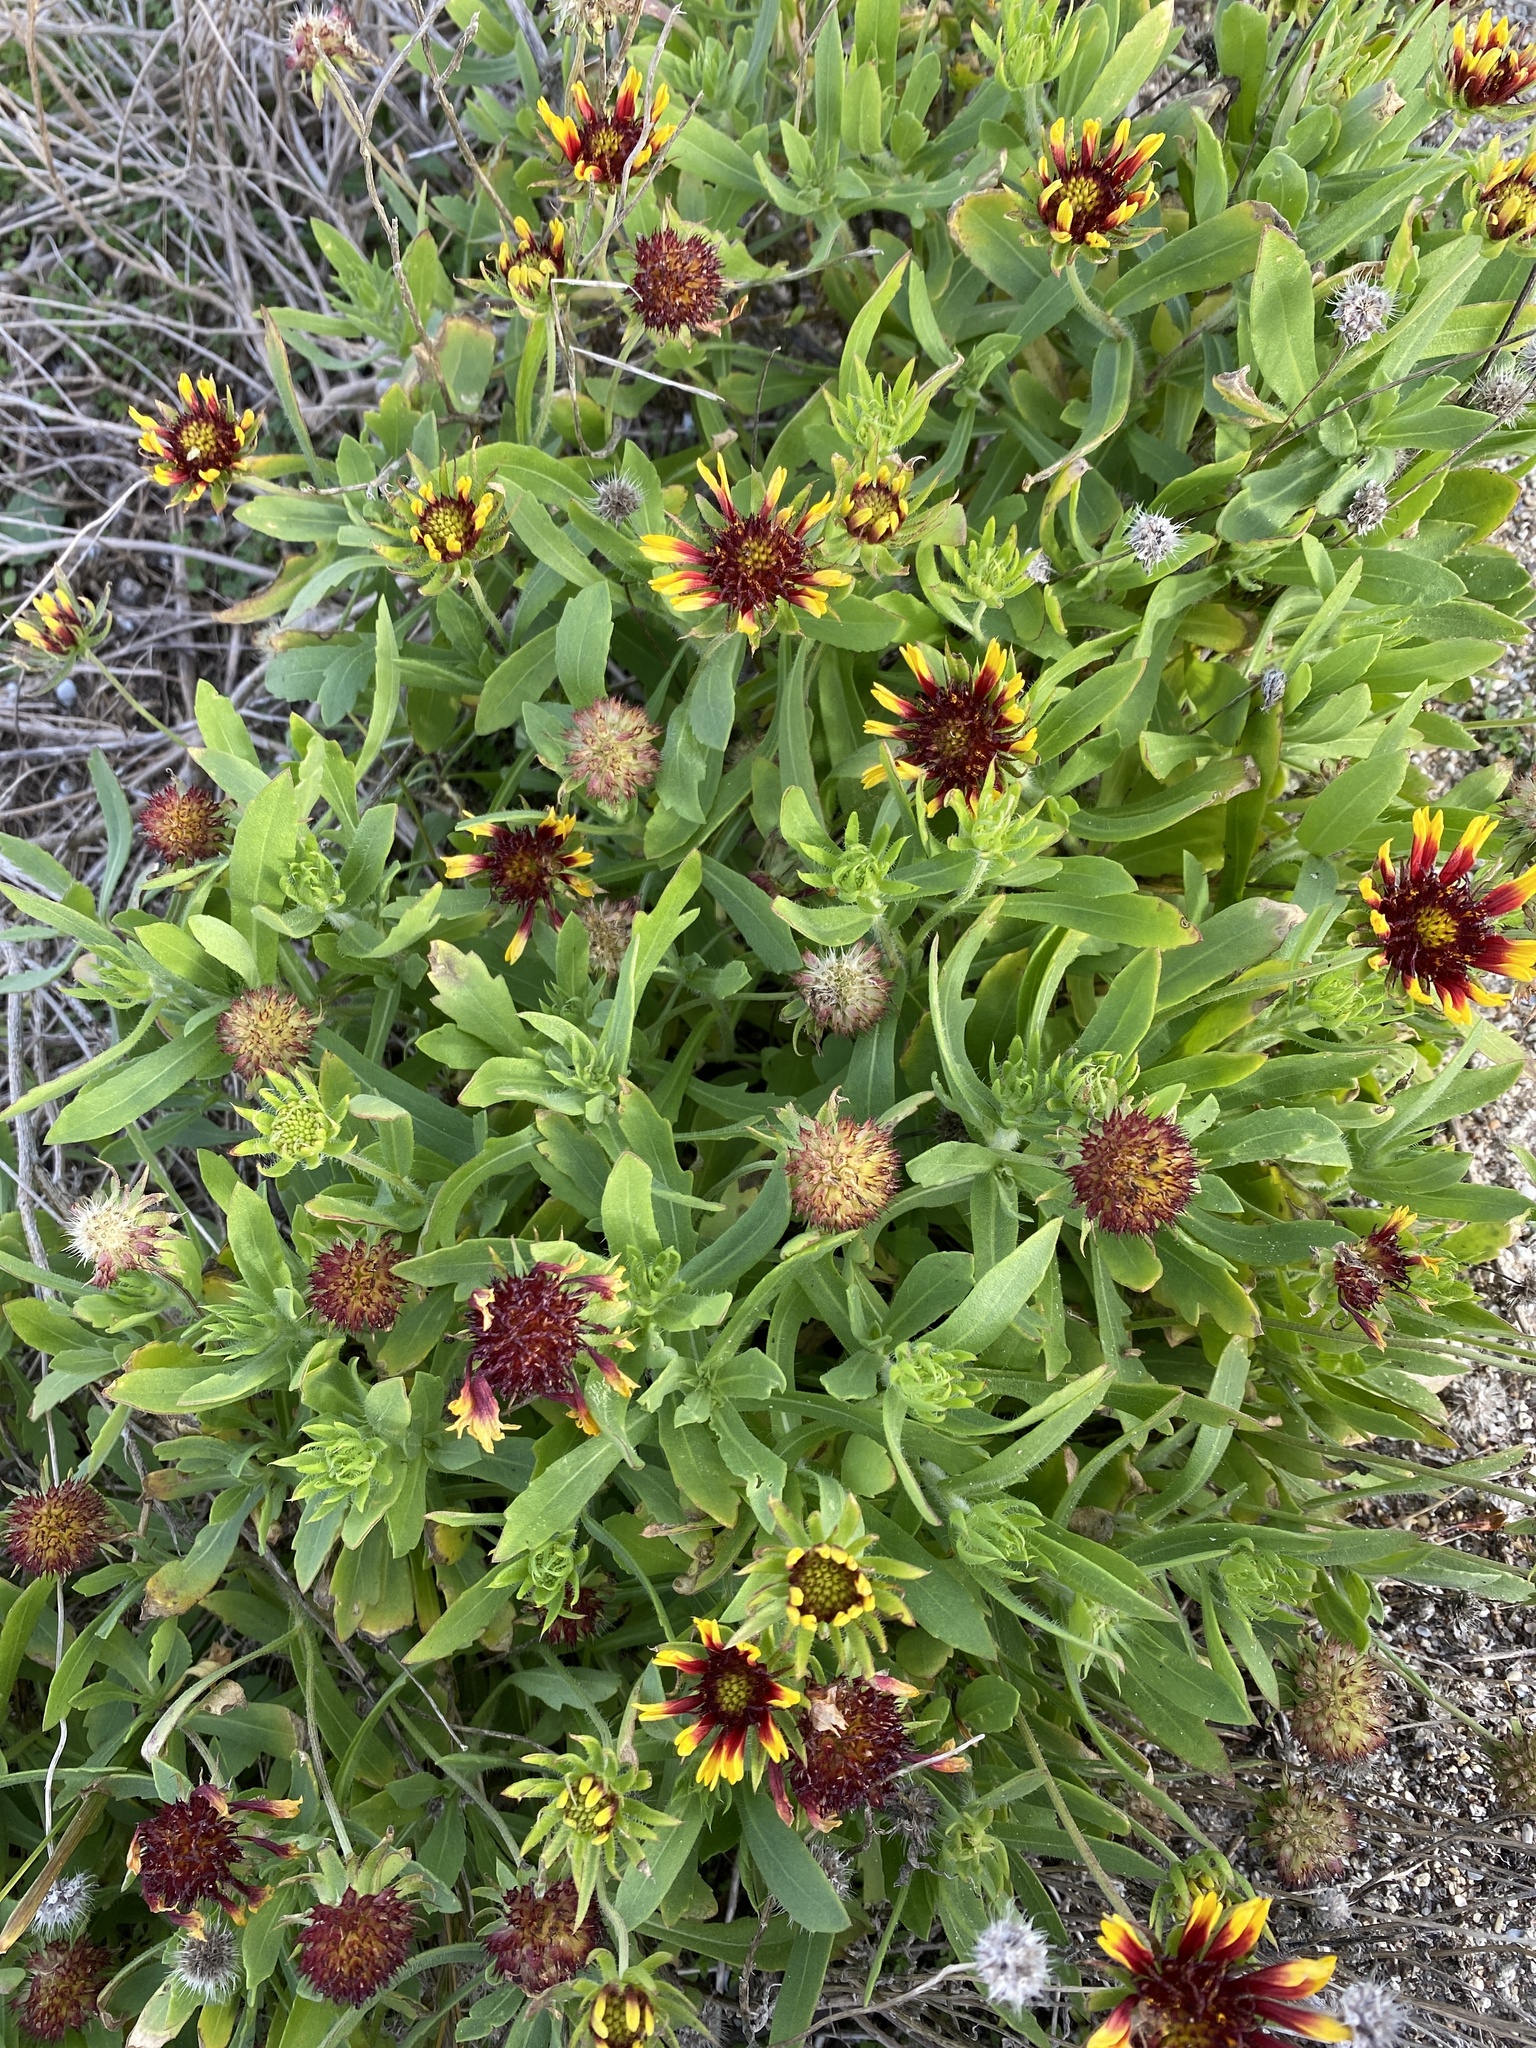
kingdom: Plantae
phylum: Tracheophyta
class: Magnoliopsida
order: Asterales
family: Asteraceae
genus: Gaillardia
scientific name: Gaillardia pulchella
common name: Firewheel
